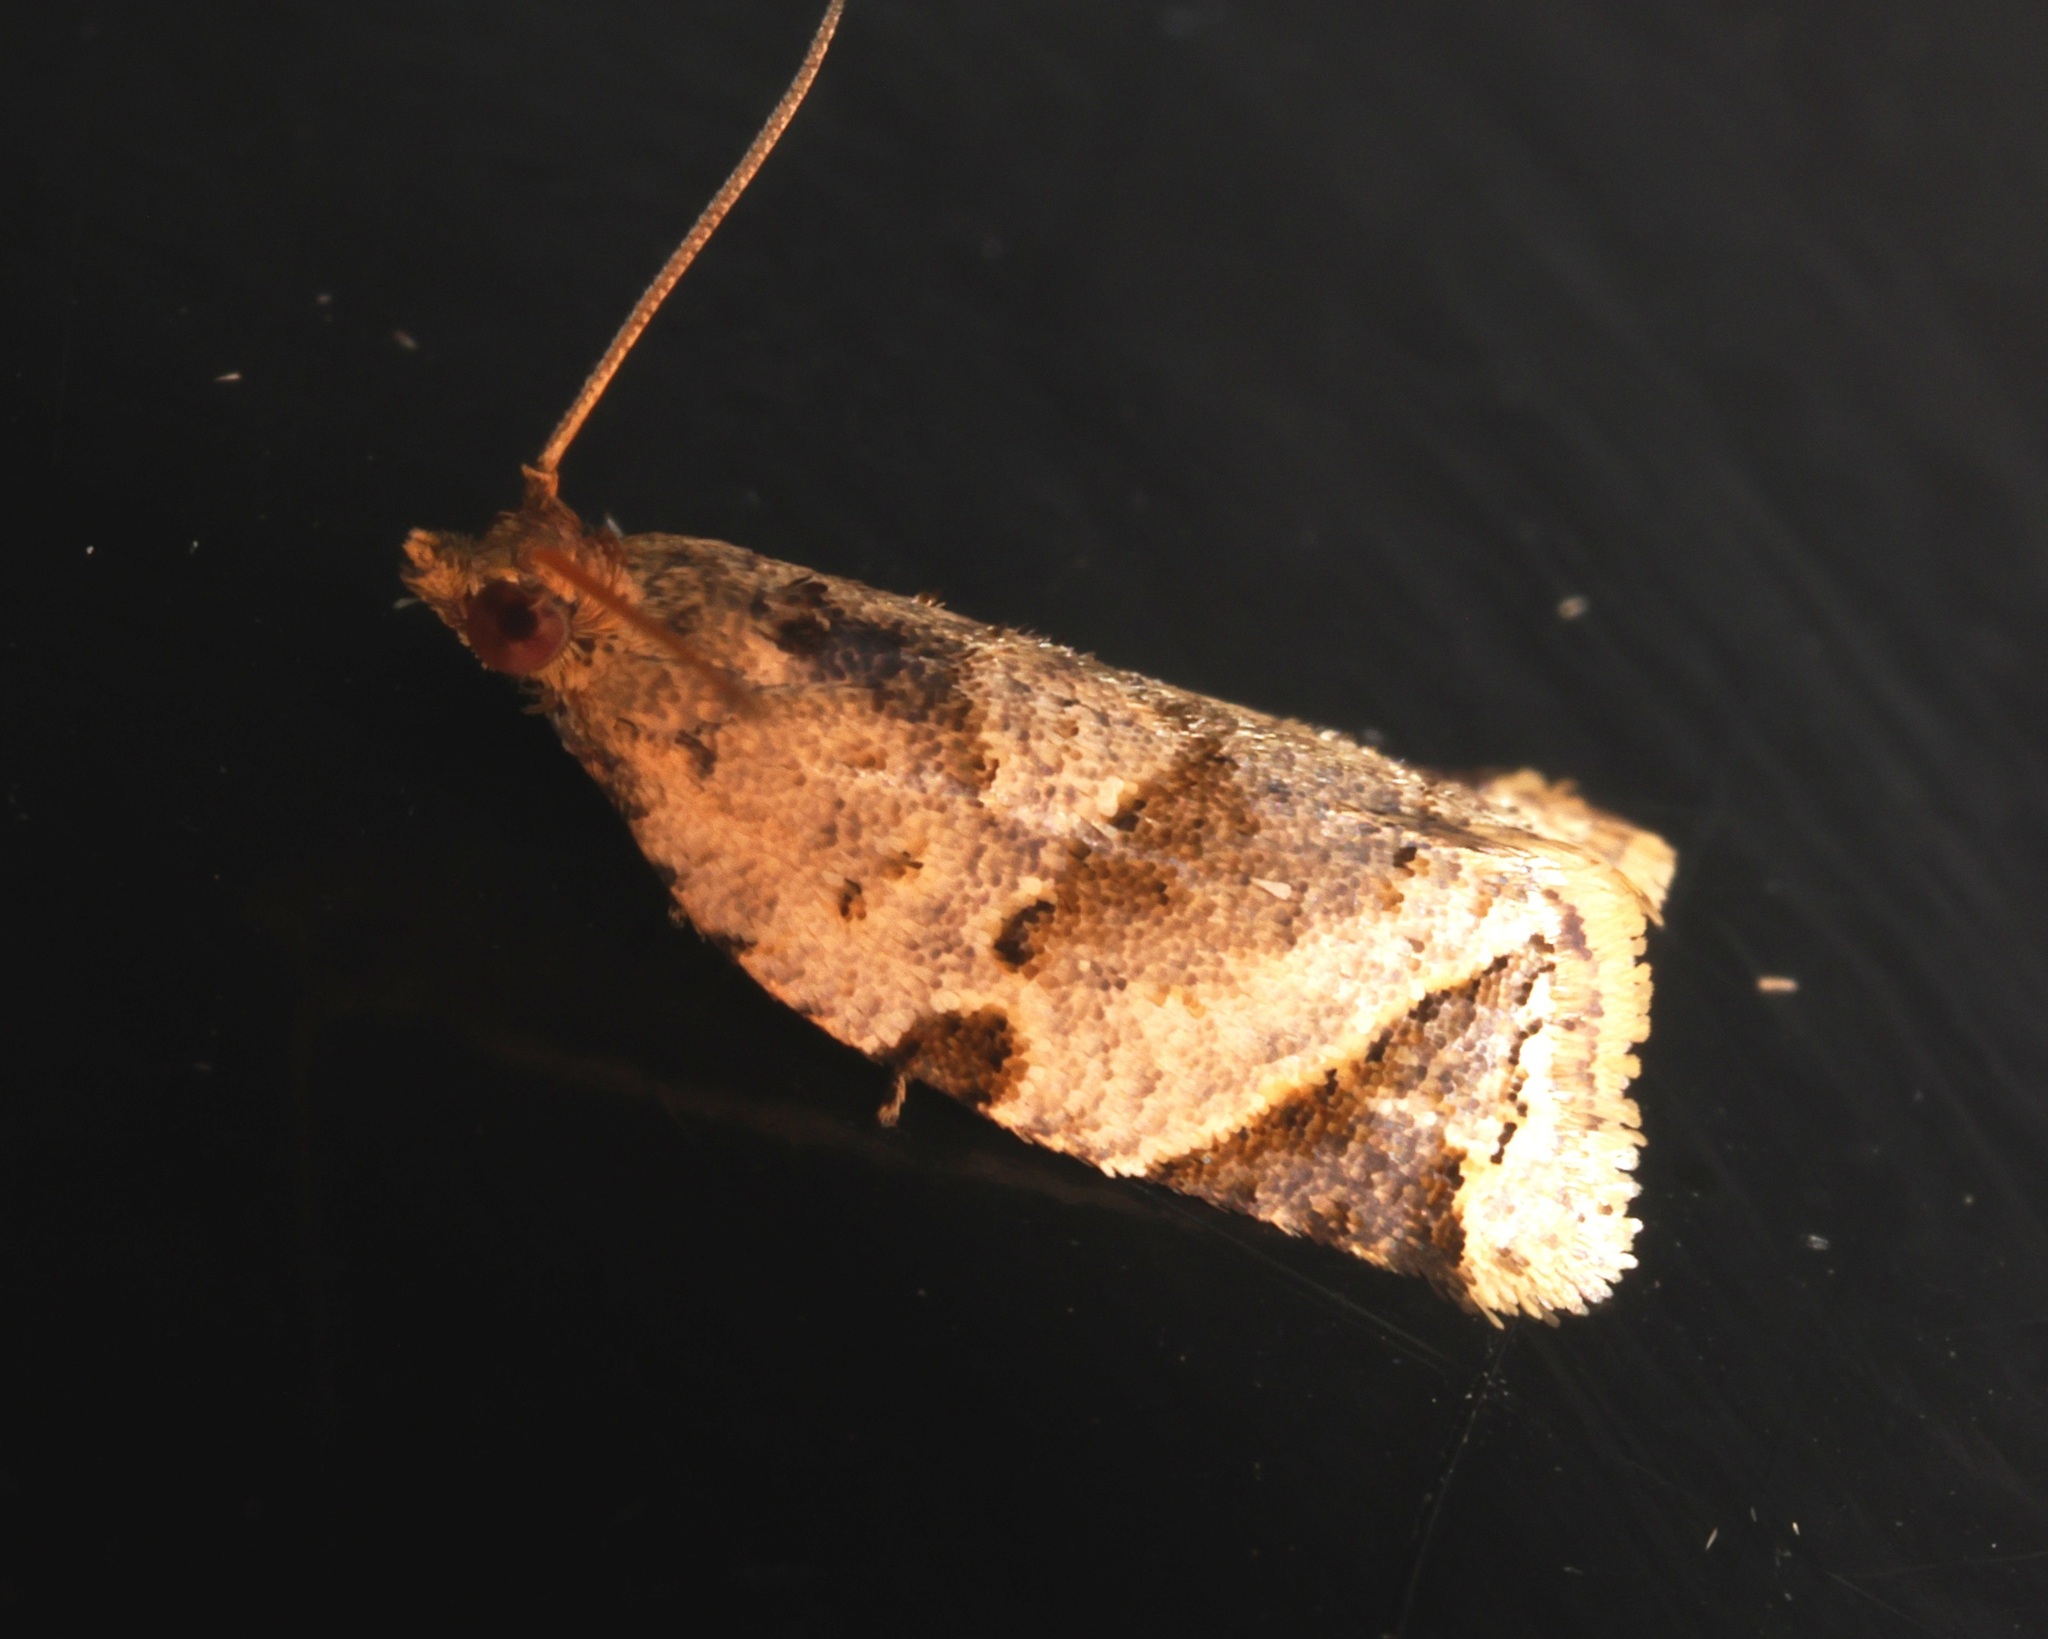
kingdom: Animalia
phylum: Arthropoda
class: Insecta
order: Lepidoptera
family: Tortricidae
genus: Neocalyptis
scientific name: Neocalyptis affinisana
